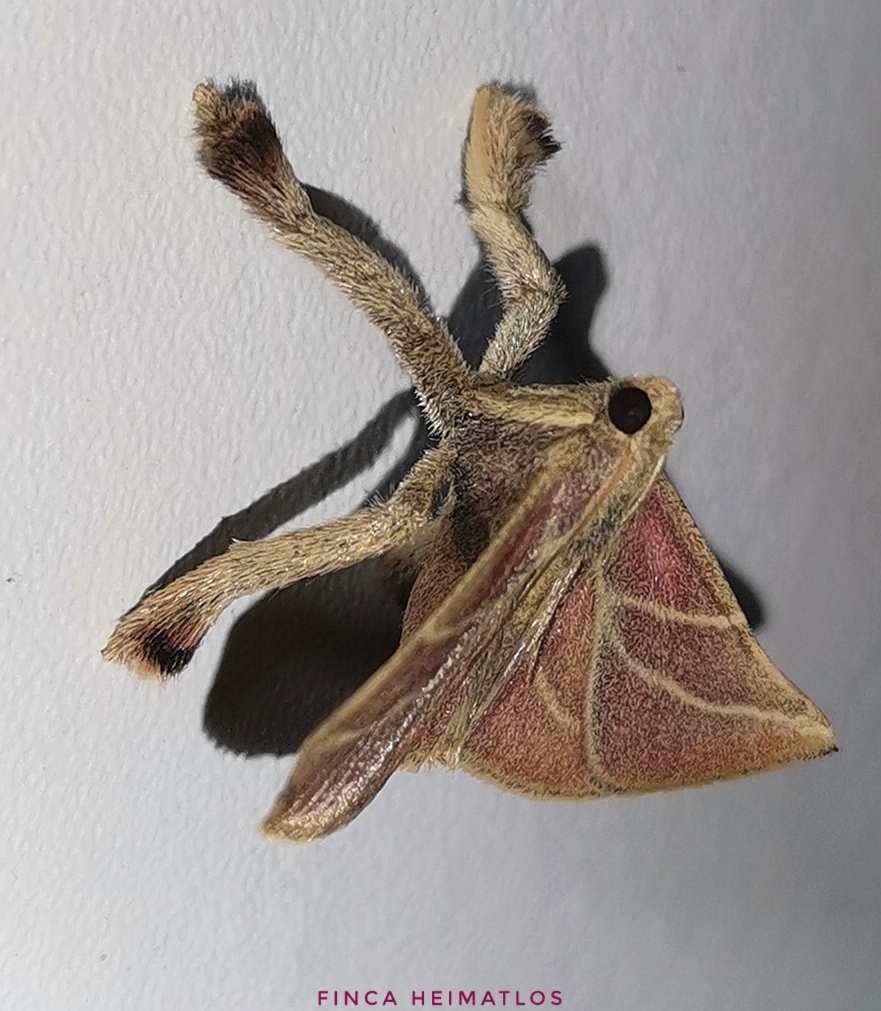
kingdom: Animalia
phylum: Arthropoda
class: Insecta
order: Lepidoptera
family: Pyralidae
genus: Pachypodistes
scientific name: Pachypodistes goeldii
